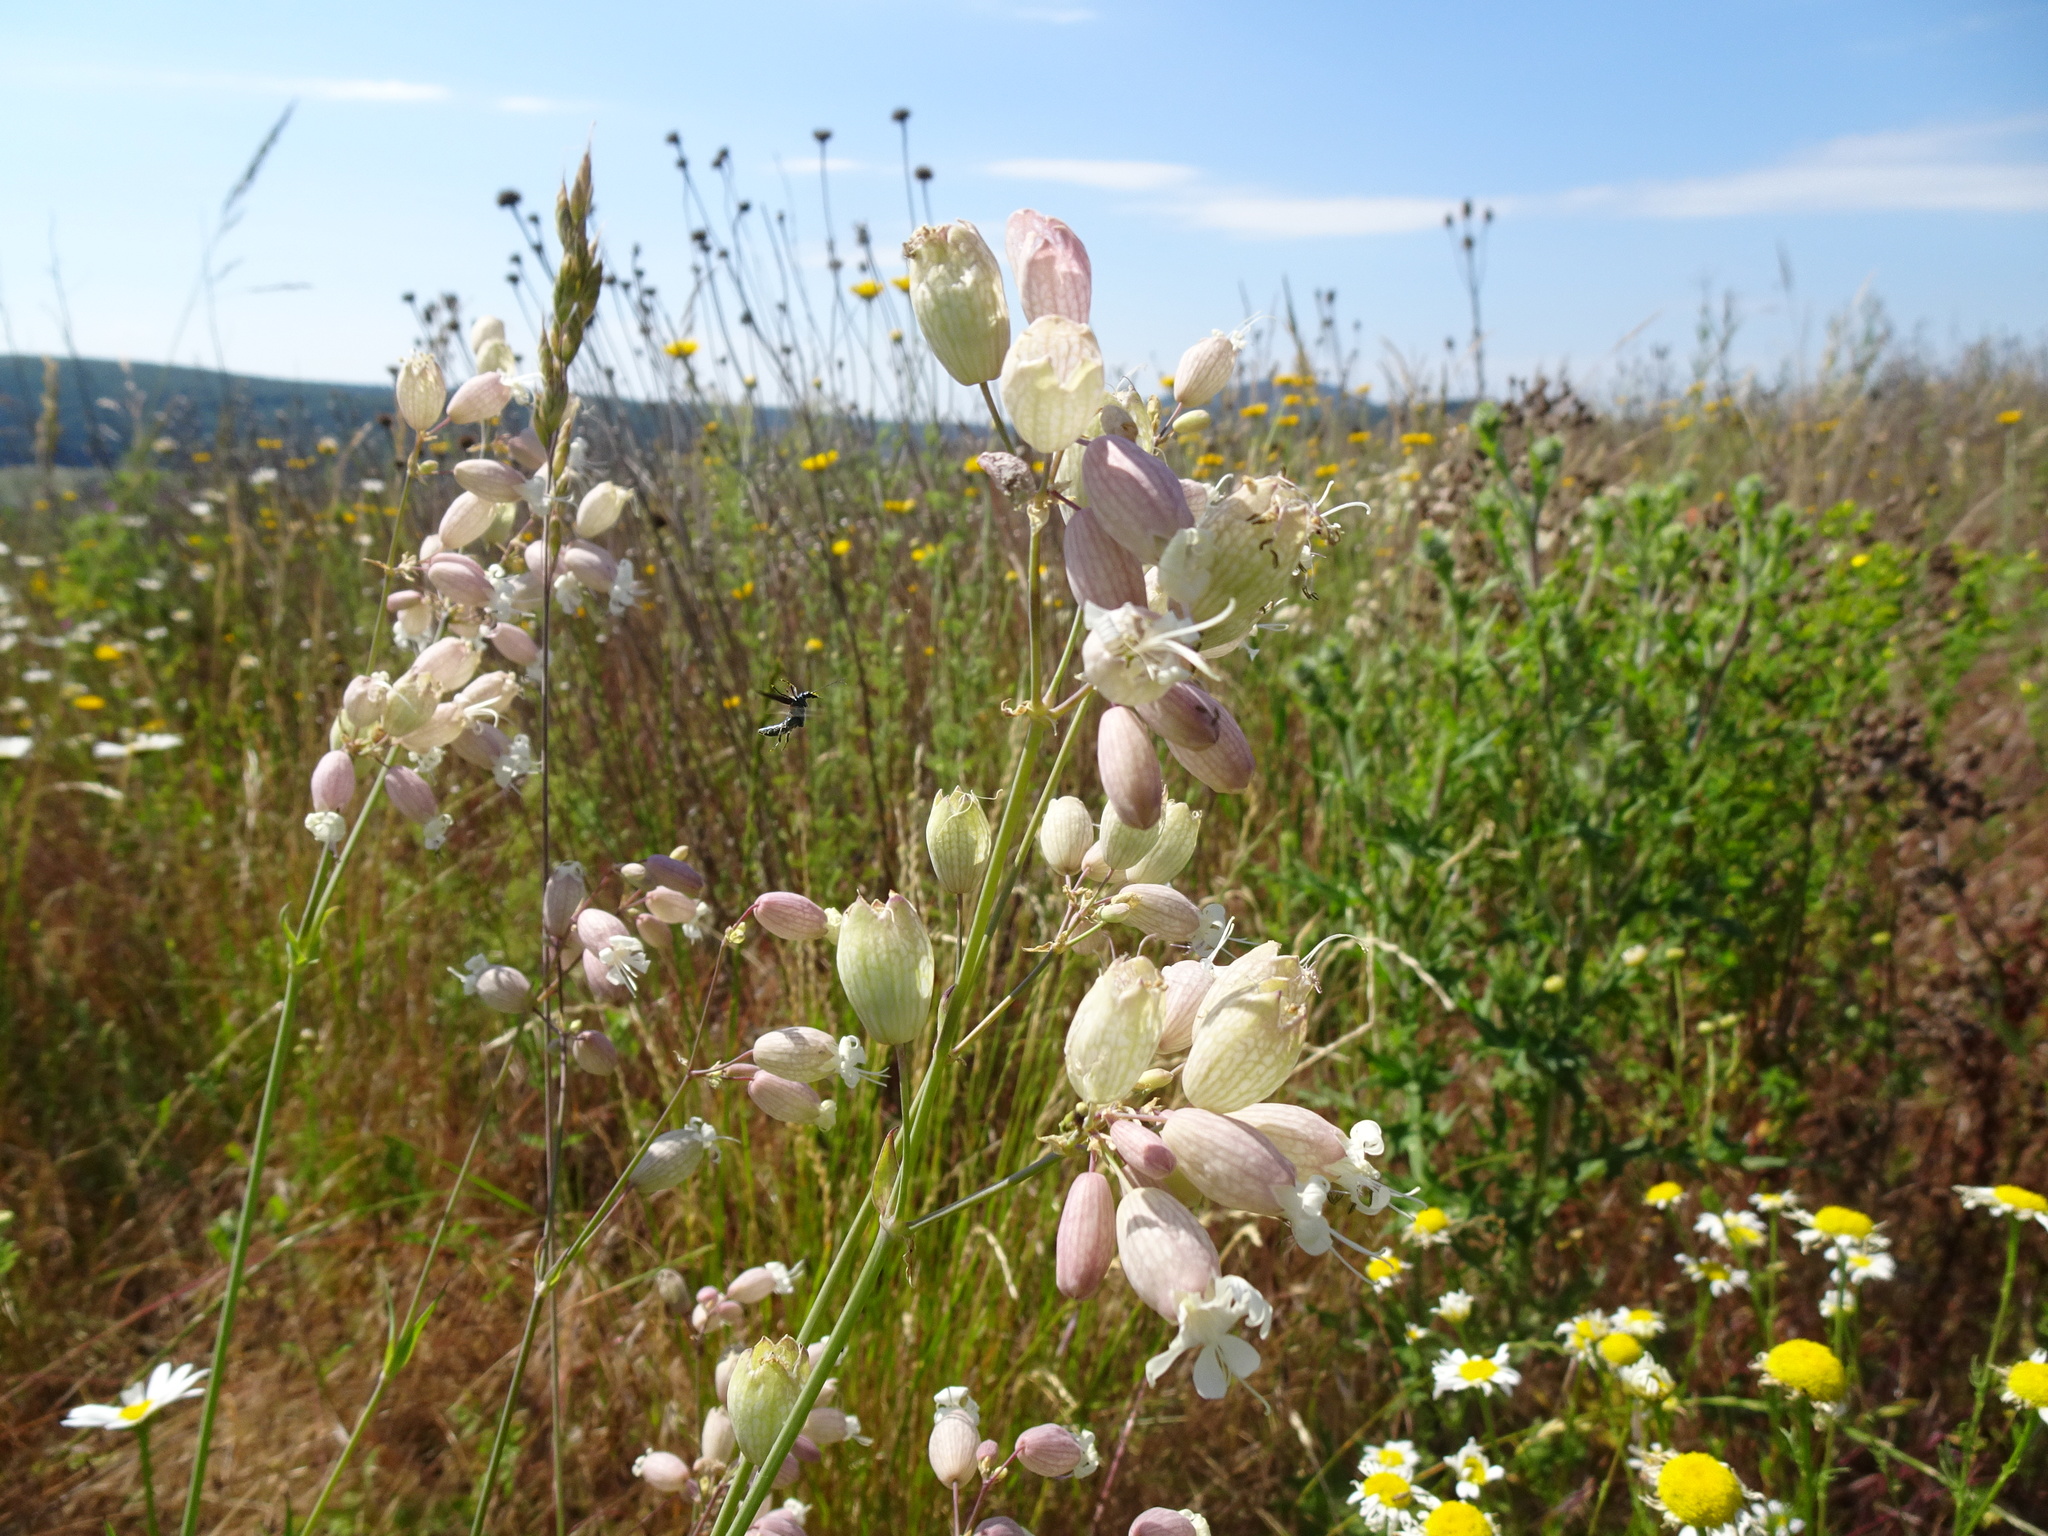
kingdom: Plantae
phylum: Tracheophyta
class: Magnoliopsida
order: Caryophyllales
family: Caryophyllaceae
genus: Silene
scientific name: Silene vulgaris
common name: Bladder campion
